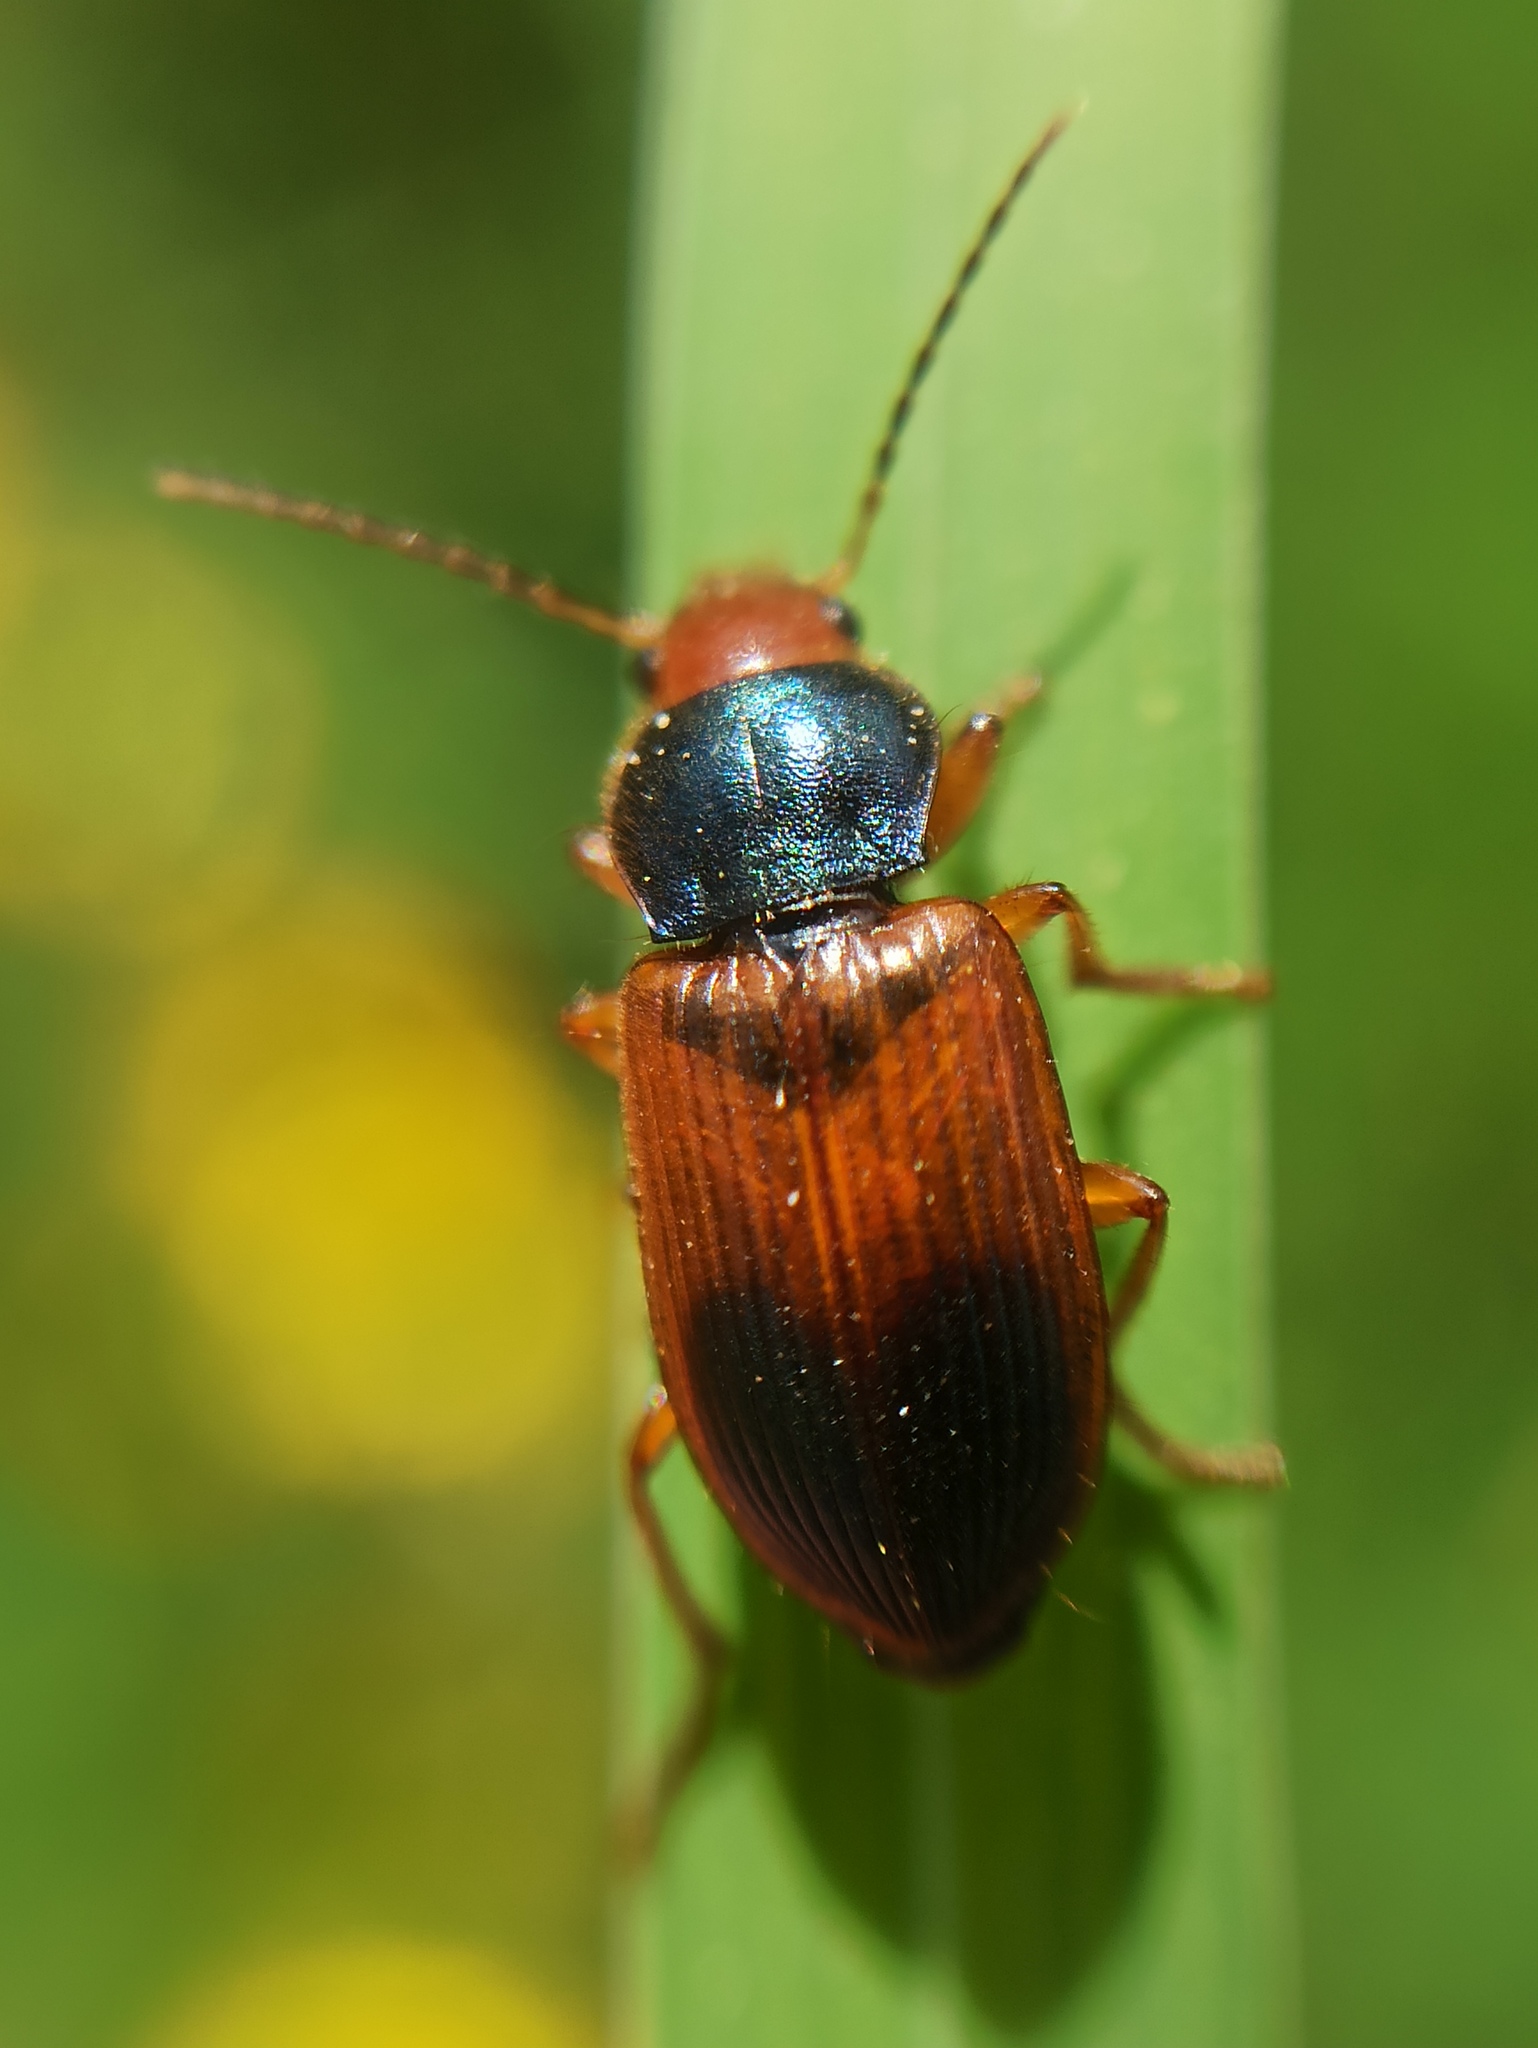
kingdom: Animalia
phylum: Arthropoda
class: Insecta
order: Coleoptera
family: Carabidae
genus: Diachromus
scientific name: Diachromus germanus
